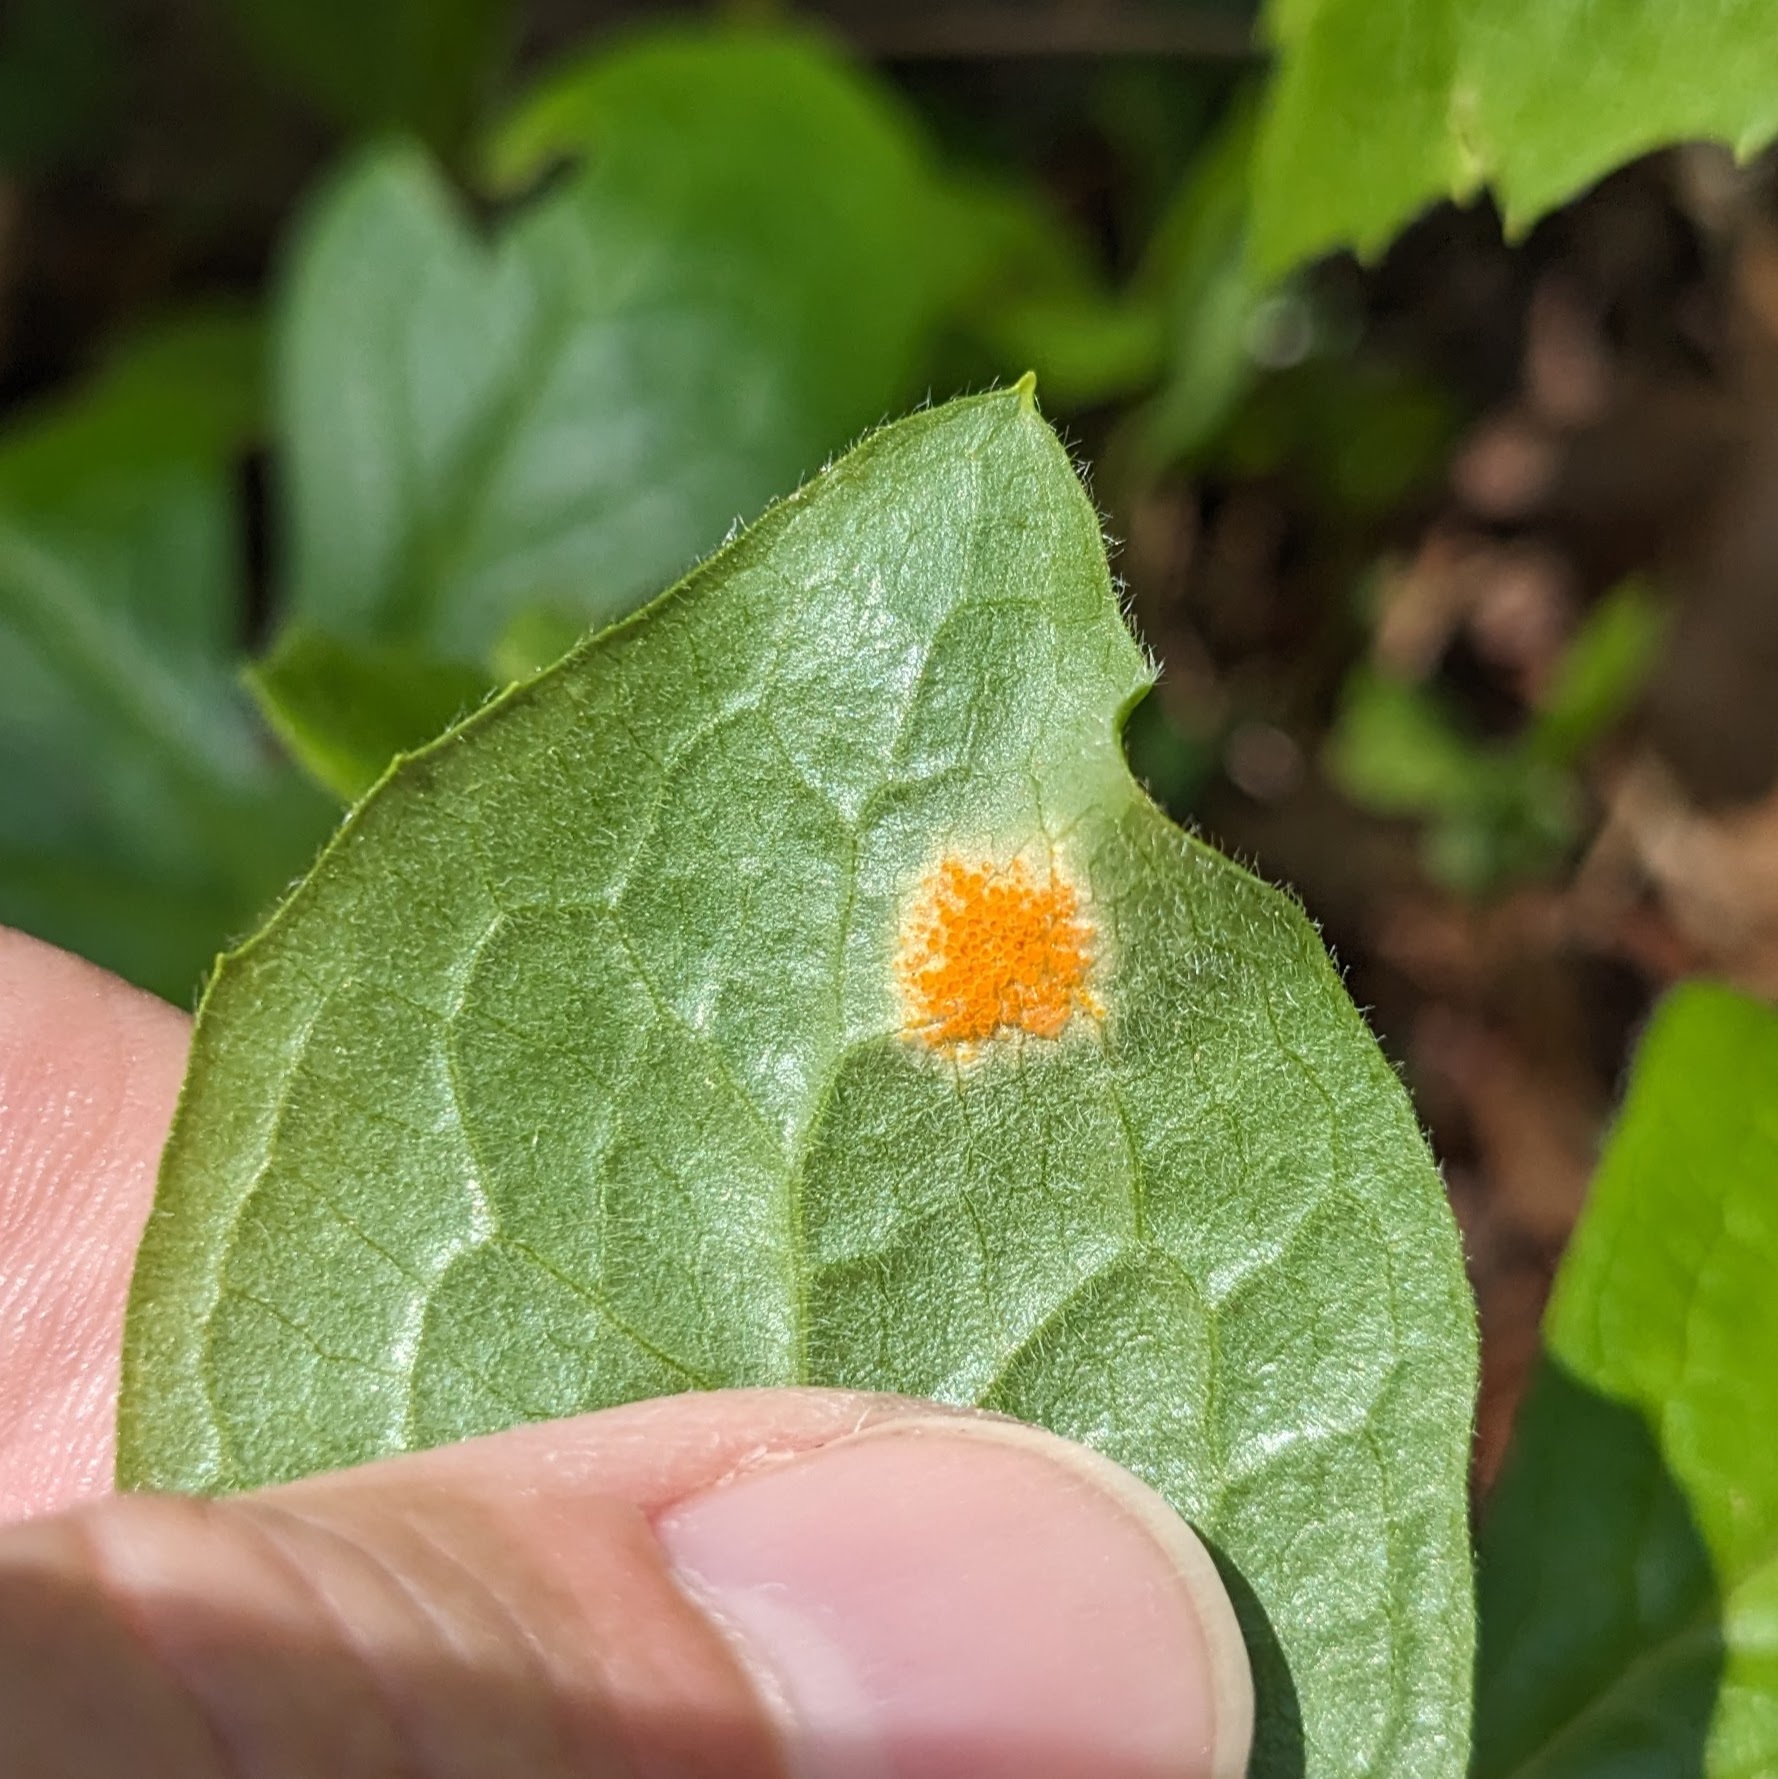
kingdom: Fungi
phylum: Basidiomycota
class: Pucciniomycetes
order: Pucciniales
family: Pucciniaceae
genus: Puccinia
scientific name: Puccinia podophylli
